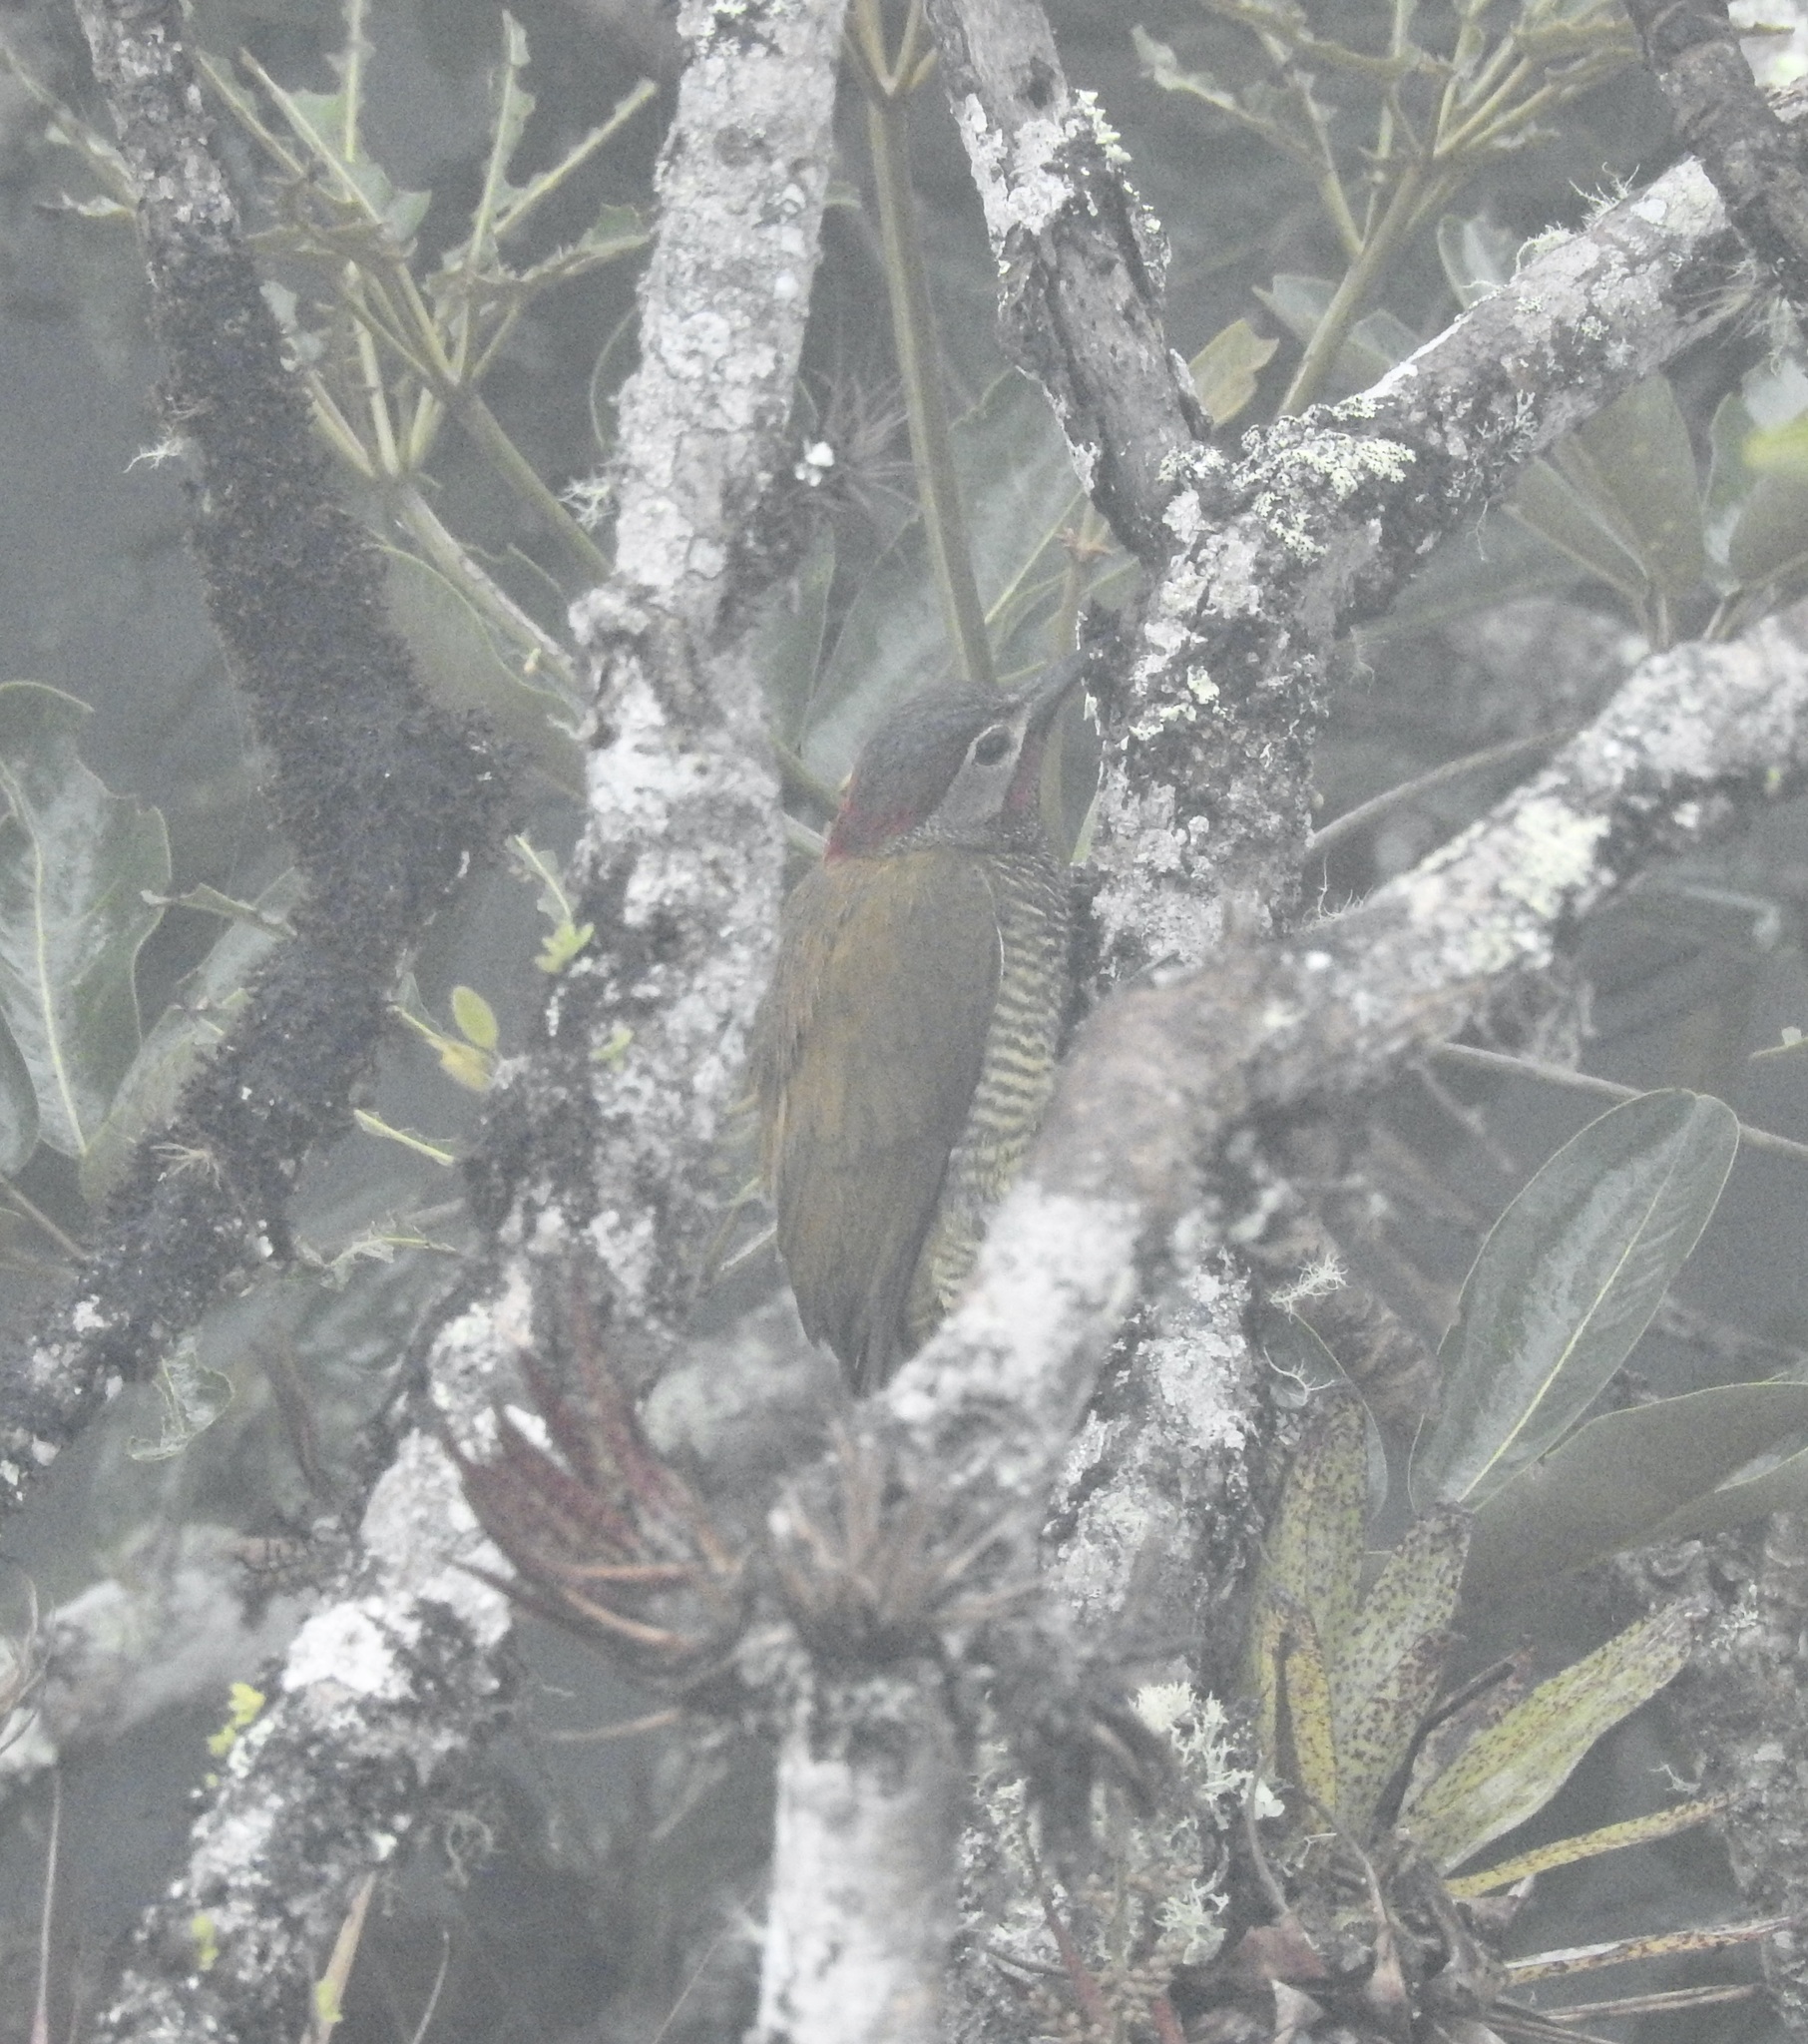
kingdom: Animalia
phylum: Chordata
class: Aves
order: Piciformes
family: Picidae
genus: Colaptes
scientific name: Colaptes rubiginosus
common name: Golden-olive woodpecker
